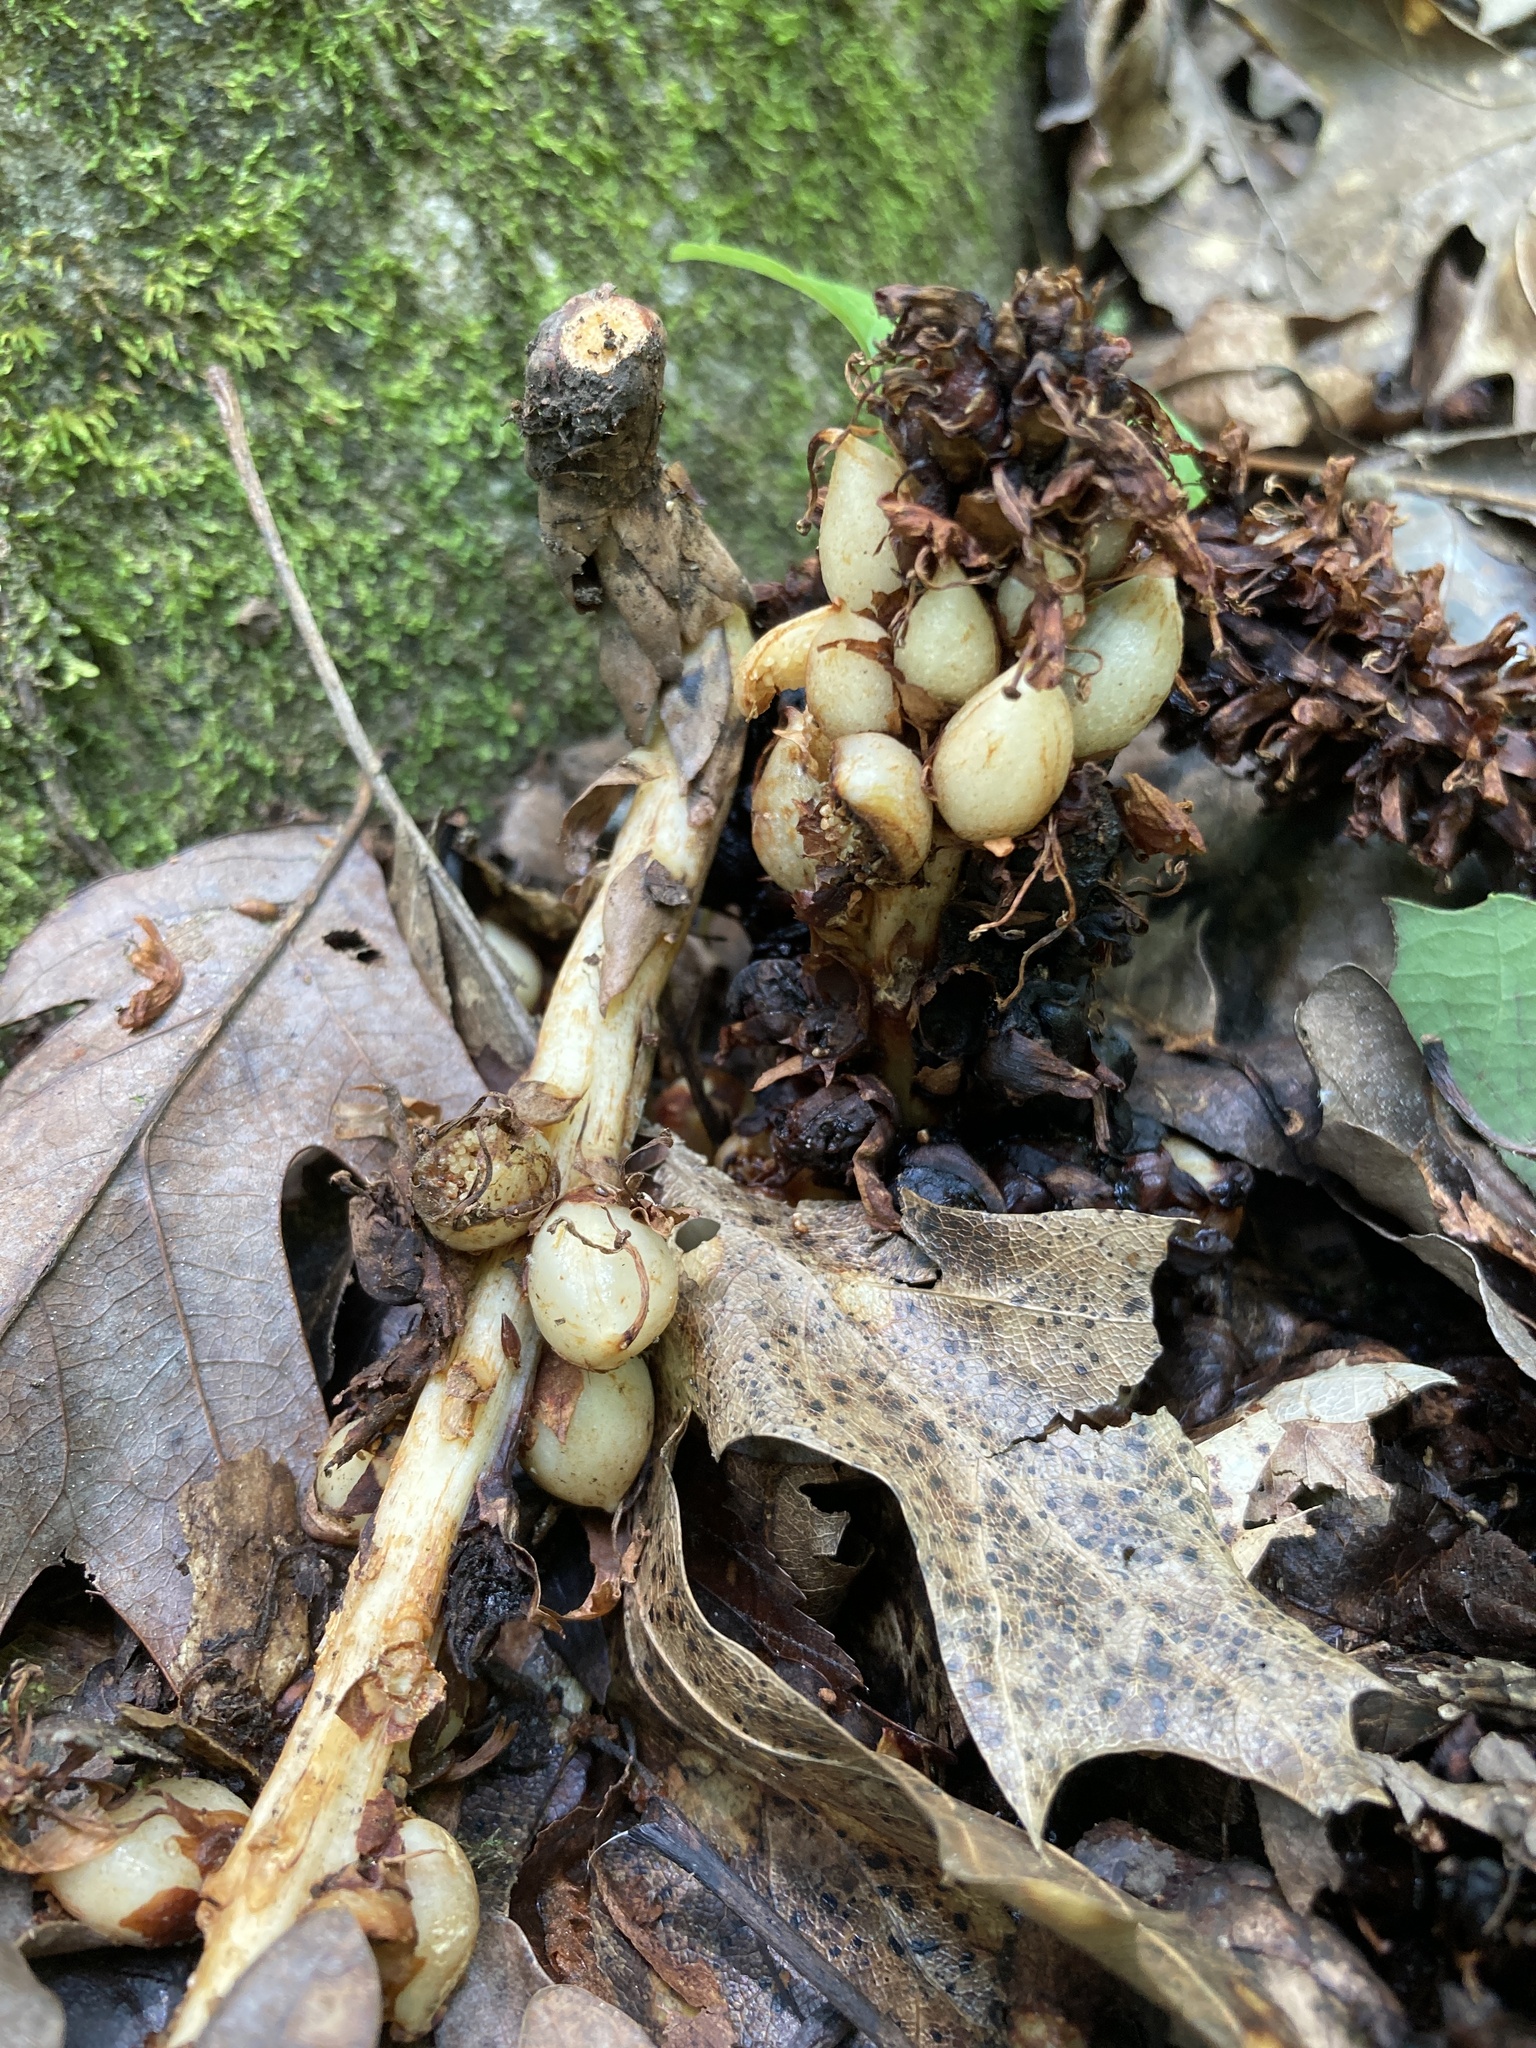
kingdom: Plantae
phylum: Tracheophyta
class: Magnoliopsida
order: Lamiales
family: Orobanchaceae
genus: Conopholis
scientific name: Conopholis americana
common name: American cancer-root
